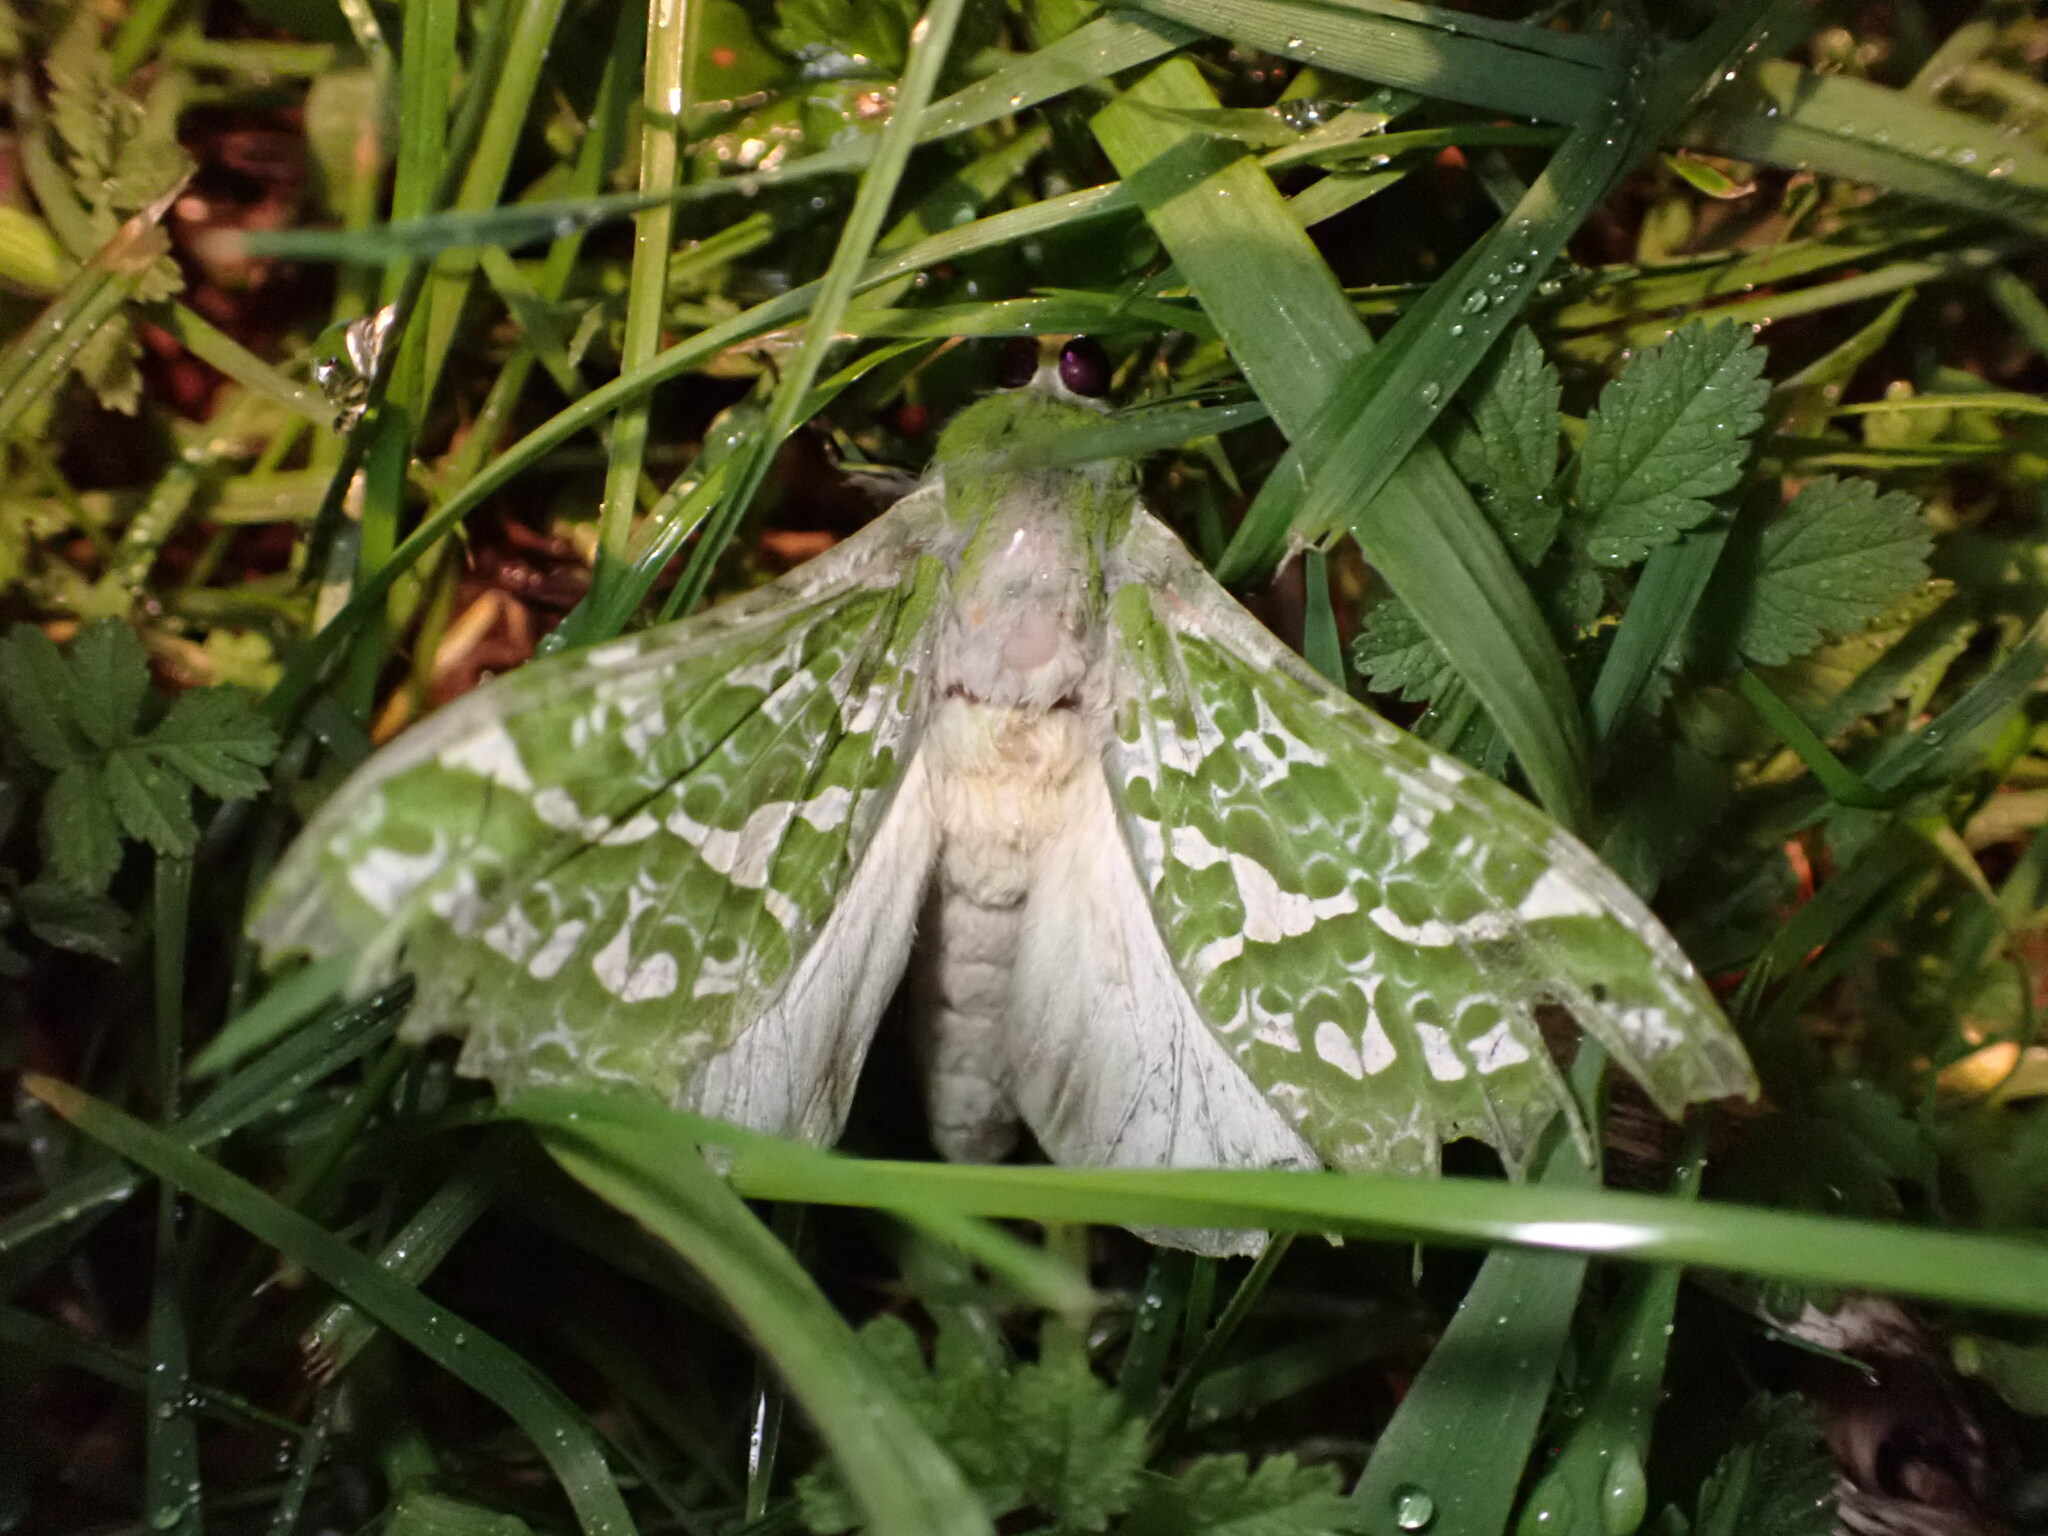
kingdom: Animalia
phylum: Arthropoda
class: Insecta
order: Lepidoptera
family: Hepialidae
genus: Aenetus
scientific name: Aenetus virescens
